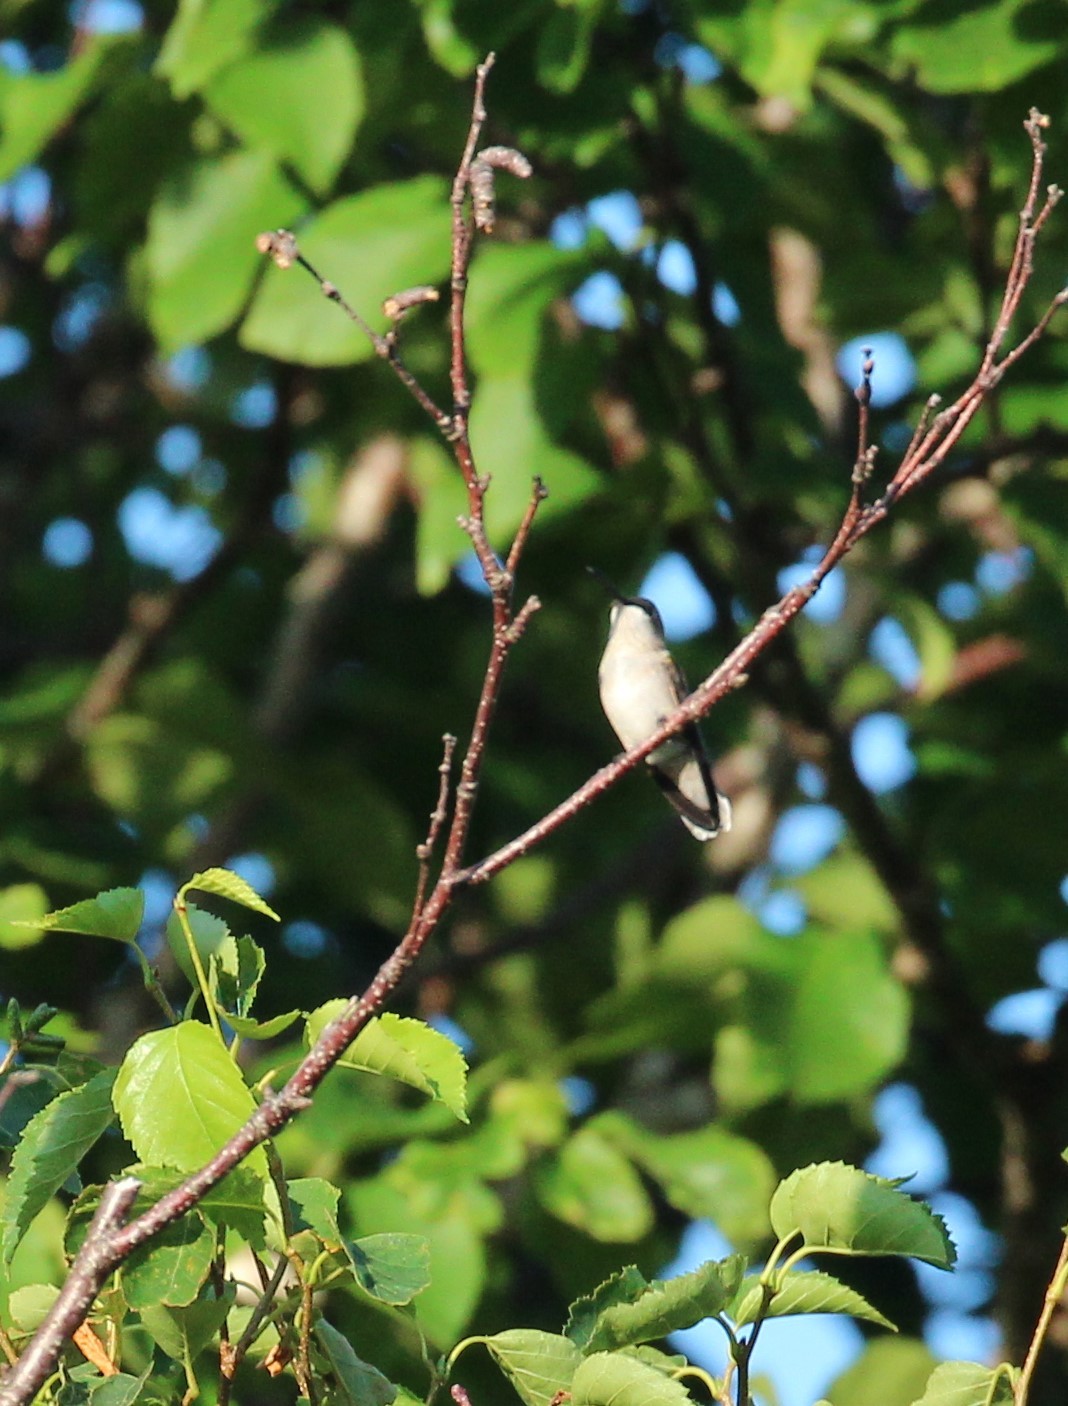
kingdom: Animalia
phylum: Chordata
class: Aves
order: Apodiformes
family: Trochilidae
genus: Archilochus
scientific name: Archilochus colubris
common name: Ruby-throated hummingbird
